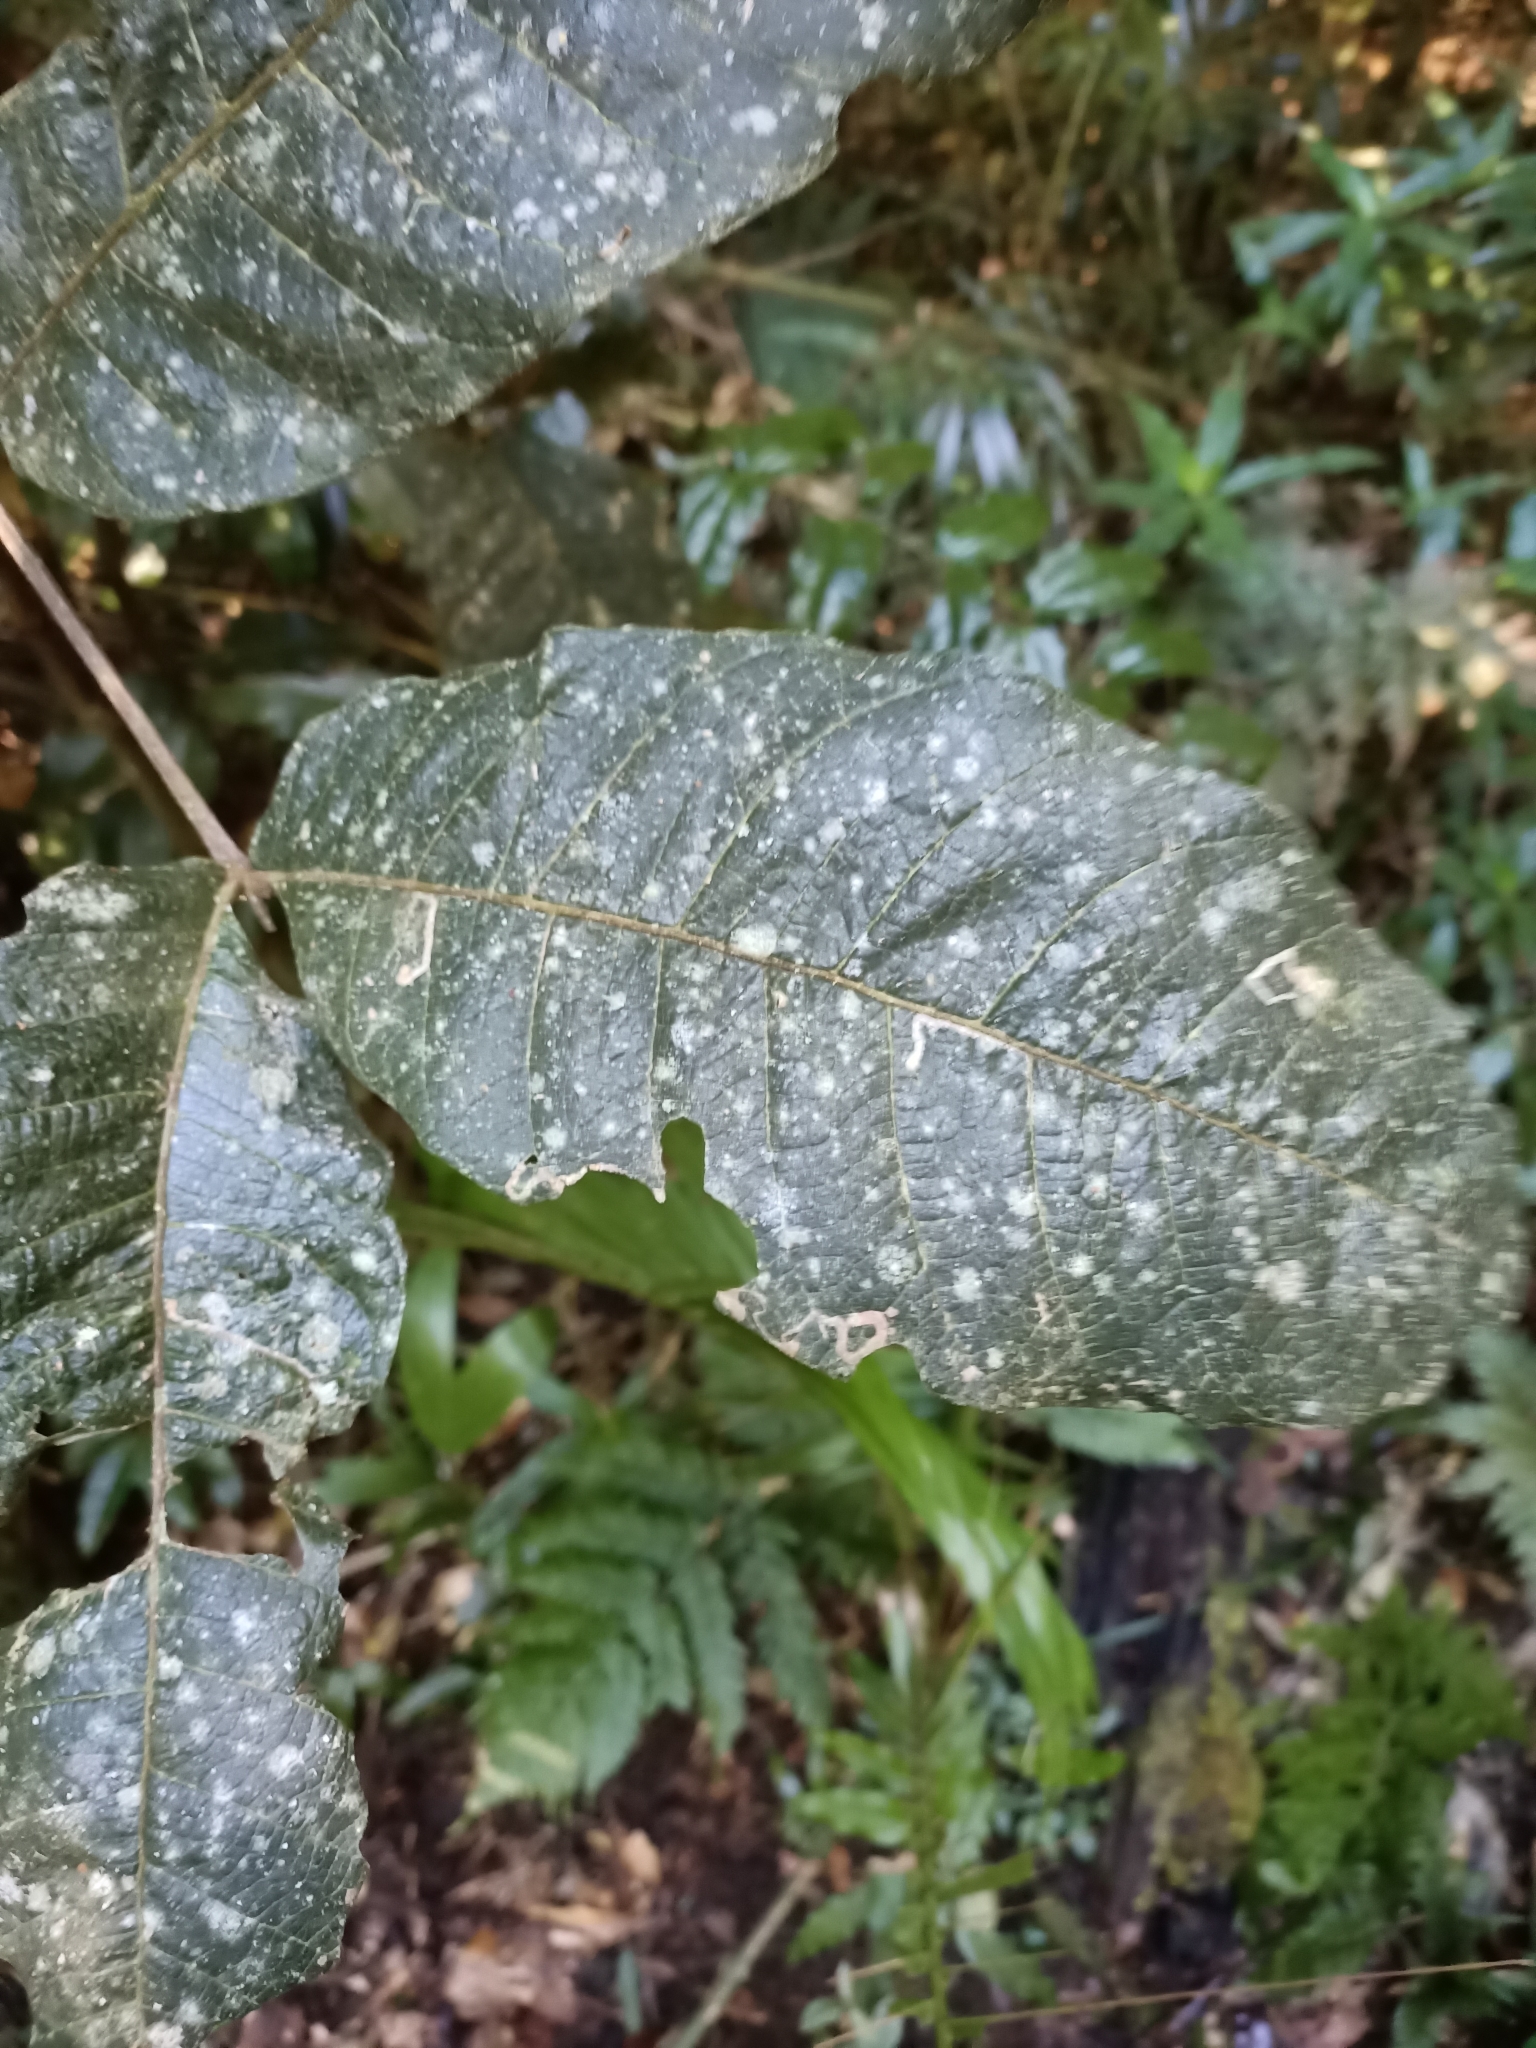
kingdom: Plantae
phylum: Tracheophyta
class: Magnoliopsida
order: Sapindales
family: Sapindaceae
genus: Diploglottis
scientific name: Diploglottis australis
